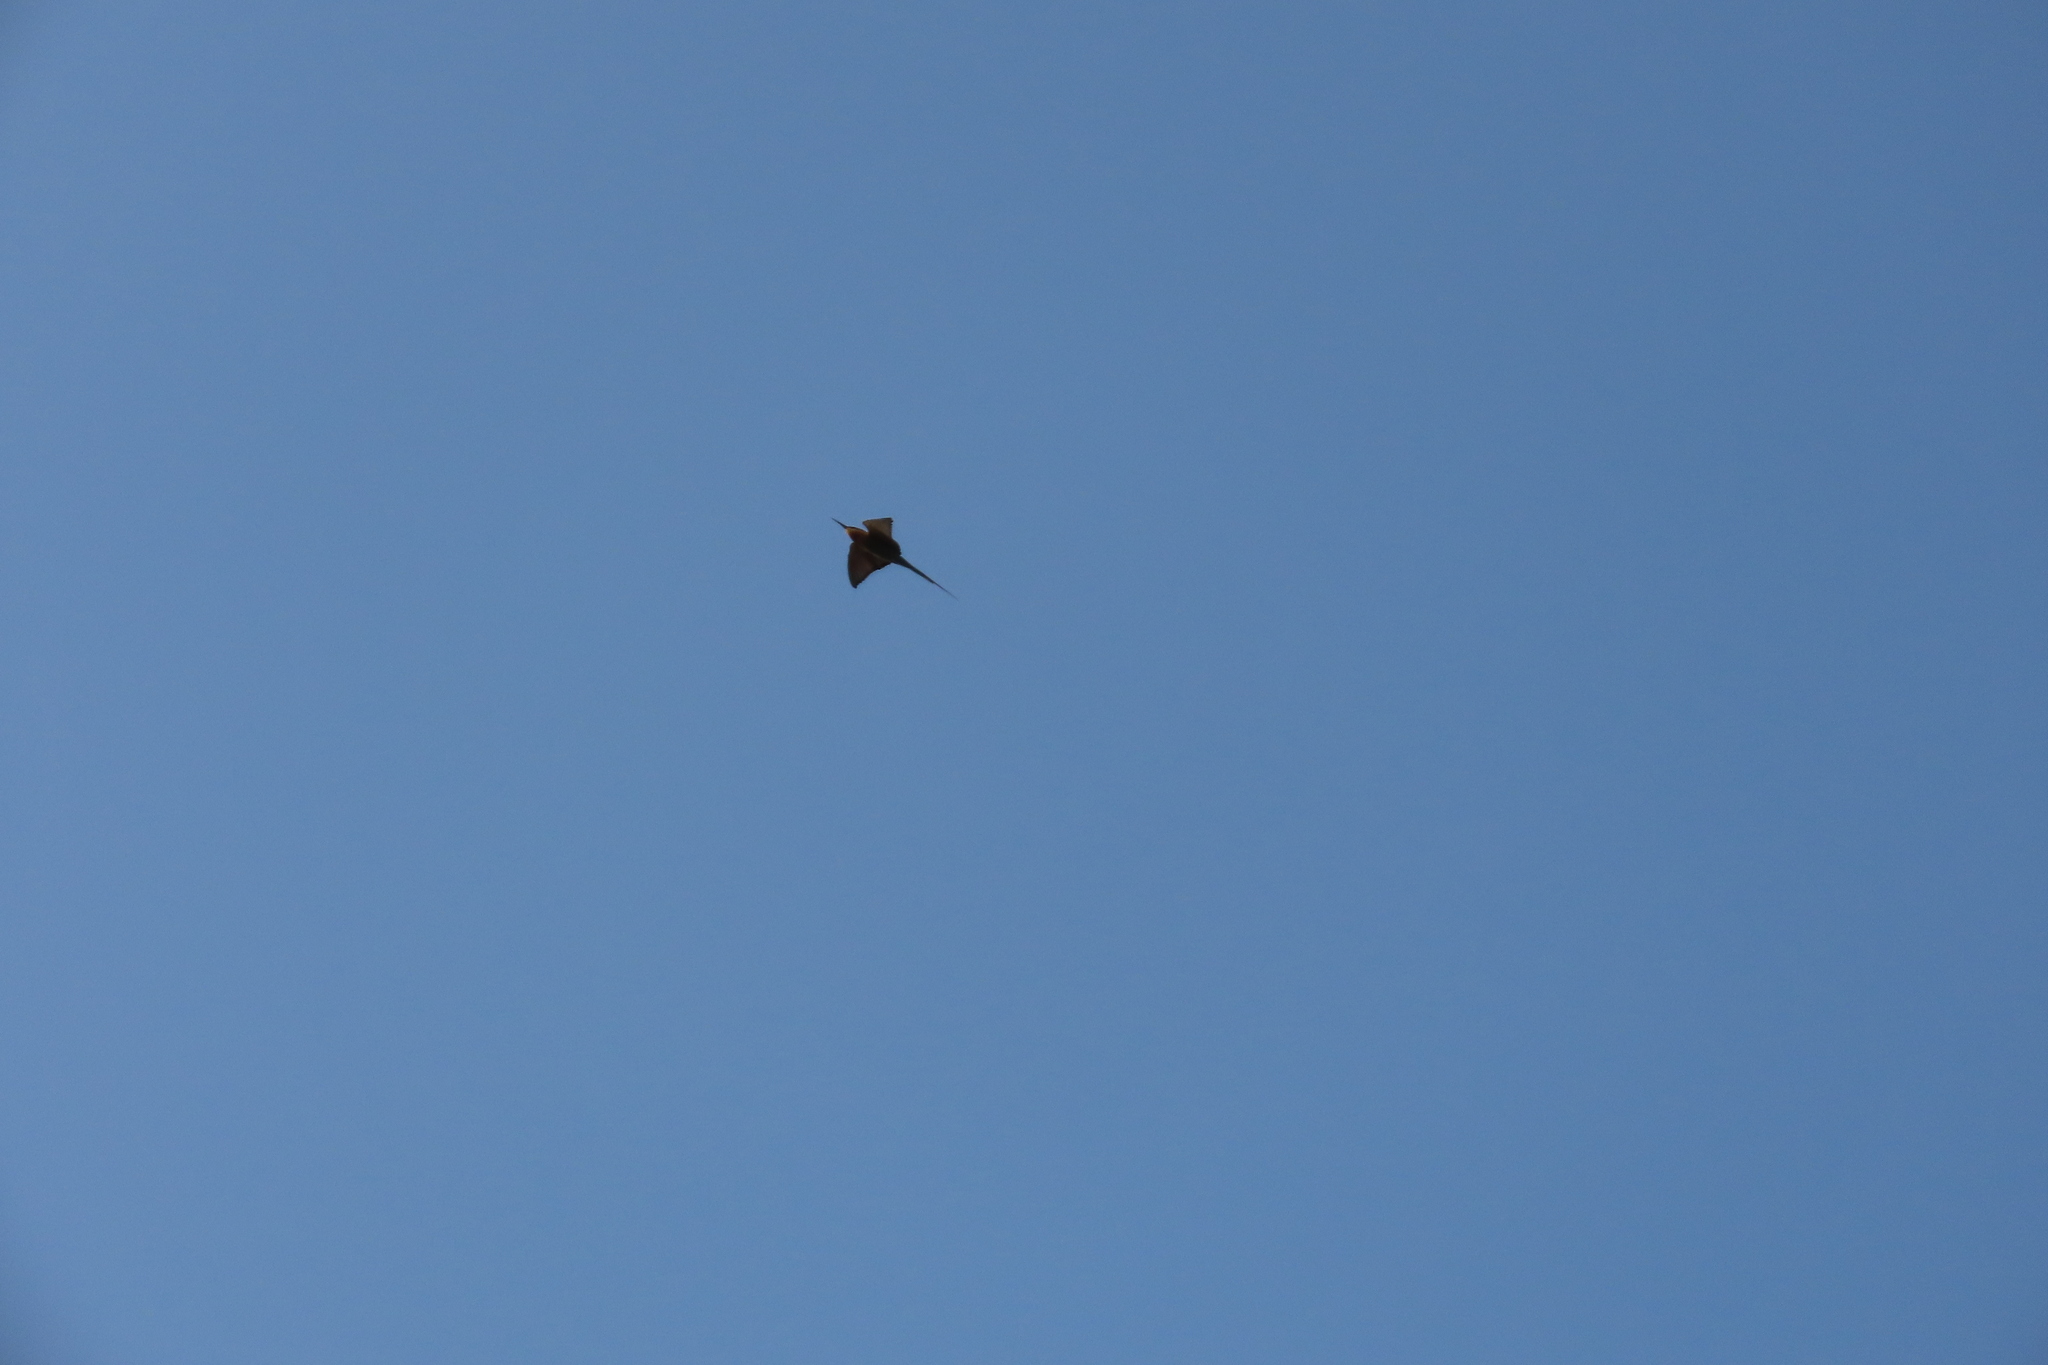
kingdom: Animalia
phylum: Chordata
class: Aves
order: Coraciiformes
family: Meropidae
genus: Merops
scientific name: Merops philippinus
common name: Blue-tailed bee-eater
